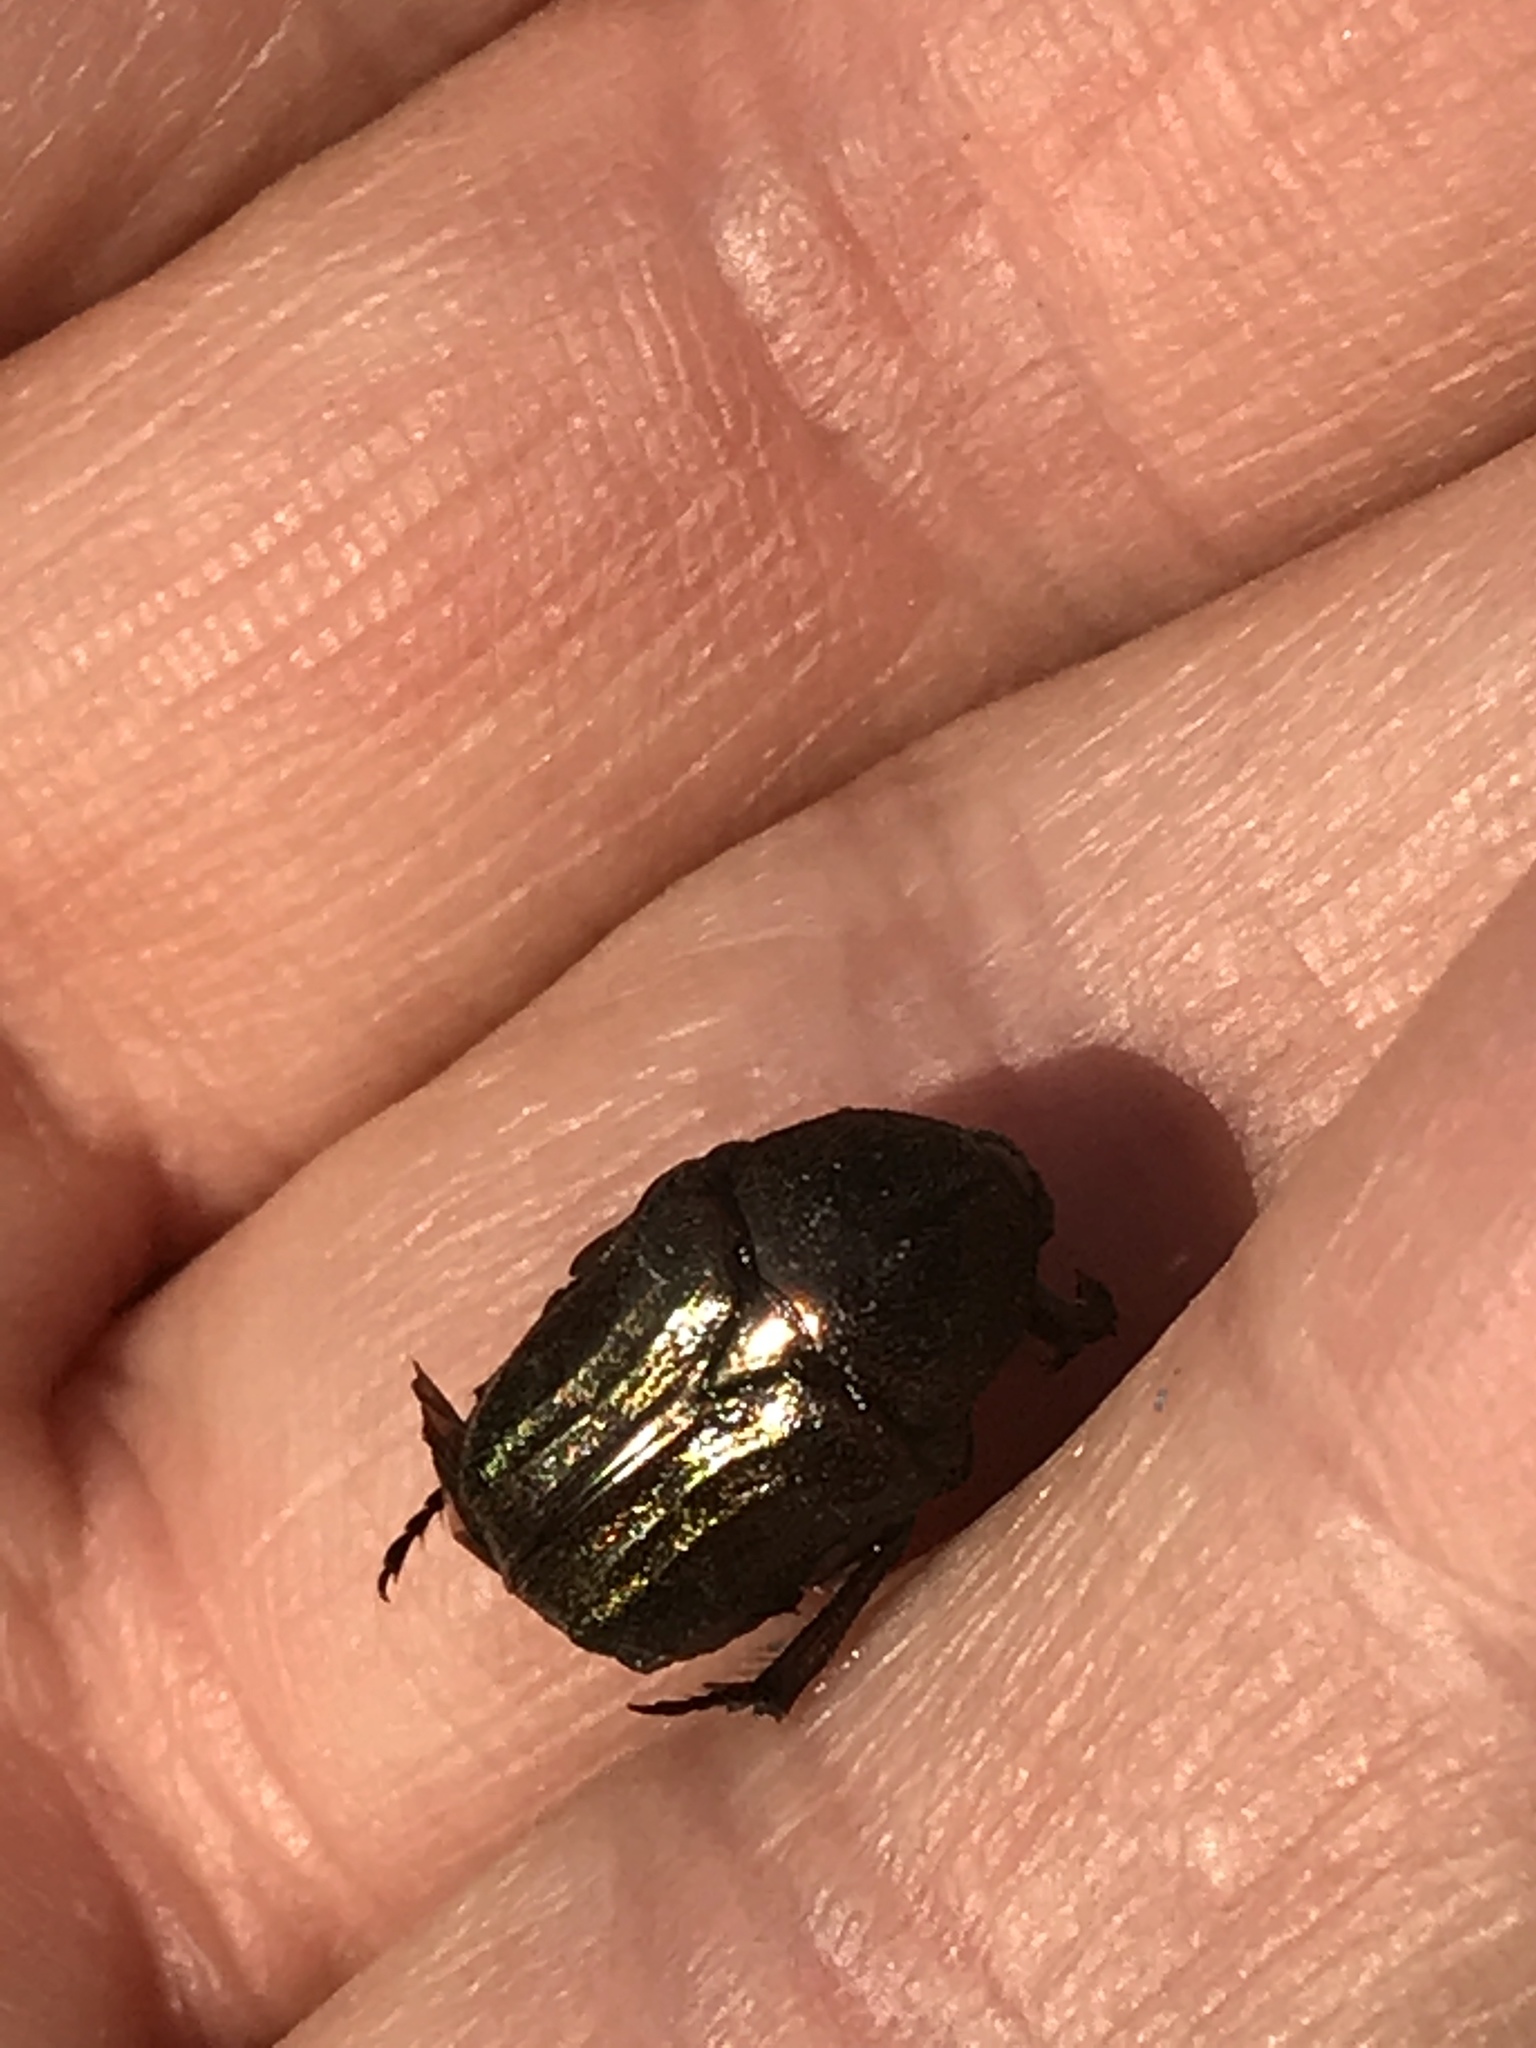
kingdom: Animalia
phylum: Arthropoda
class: Insecta
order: Coleoptera
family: Scarabaeidae
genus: Euphoria
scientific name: Euphoria sepulcralis
